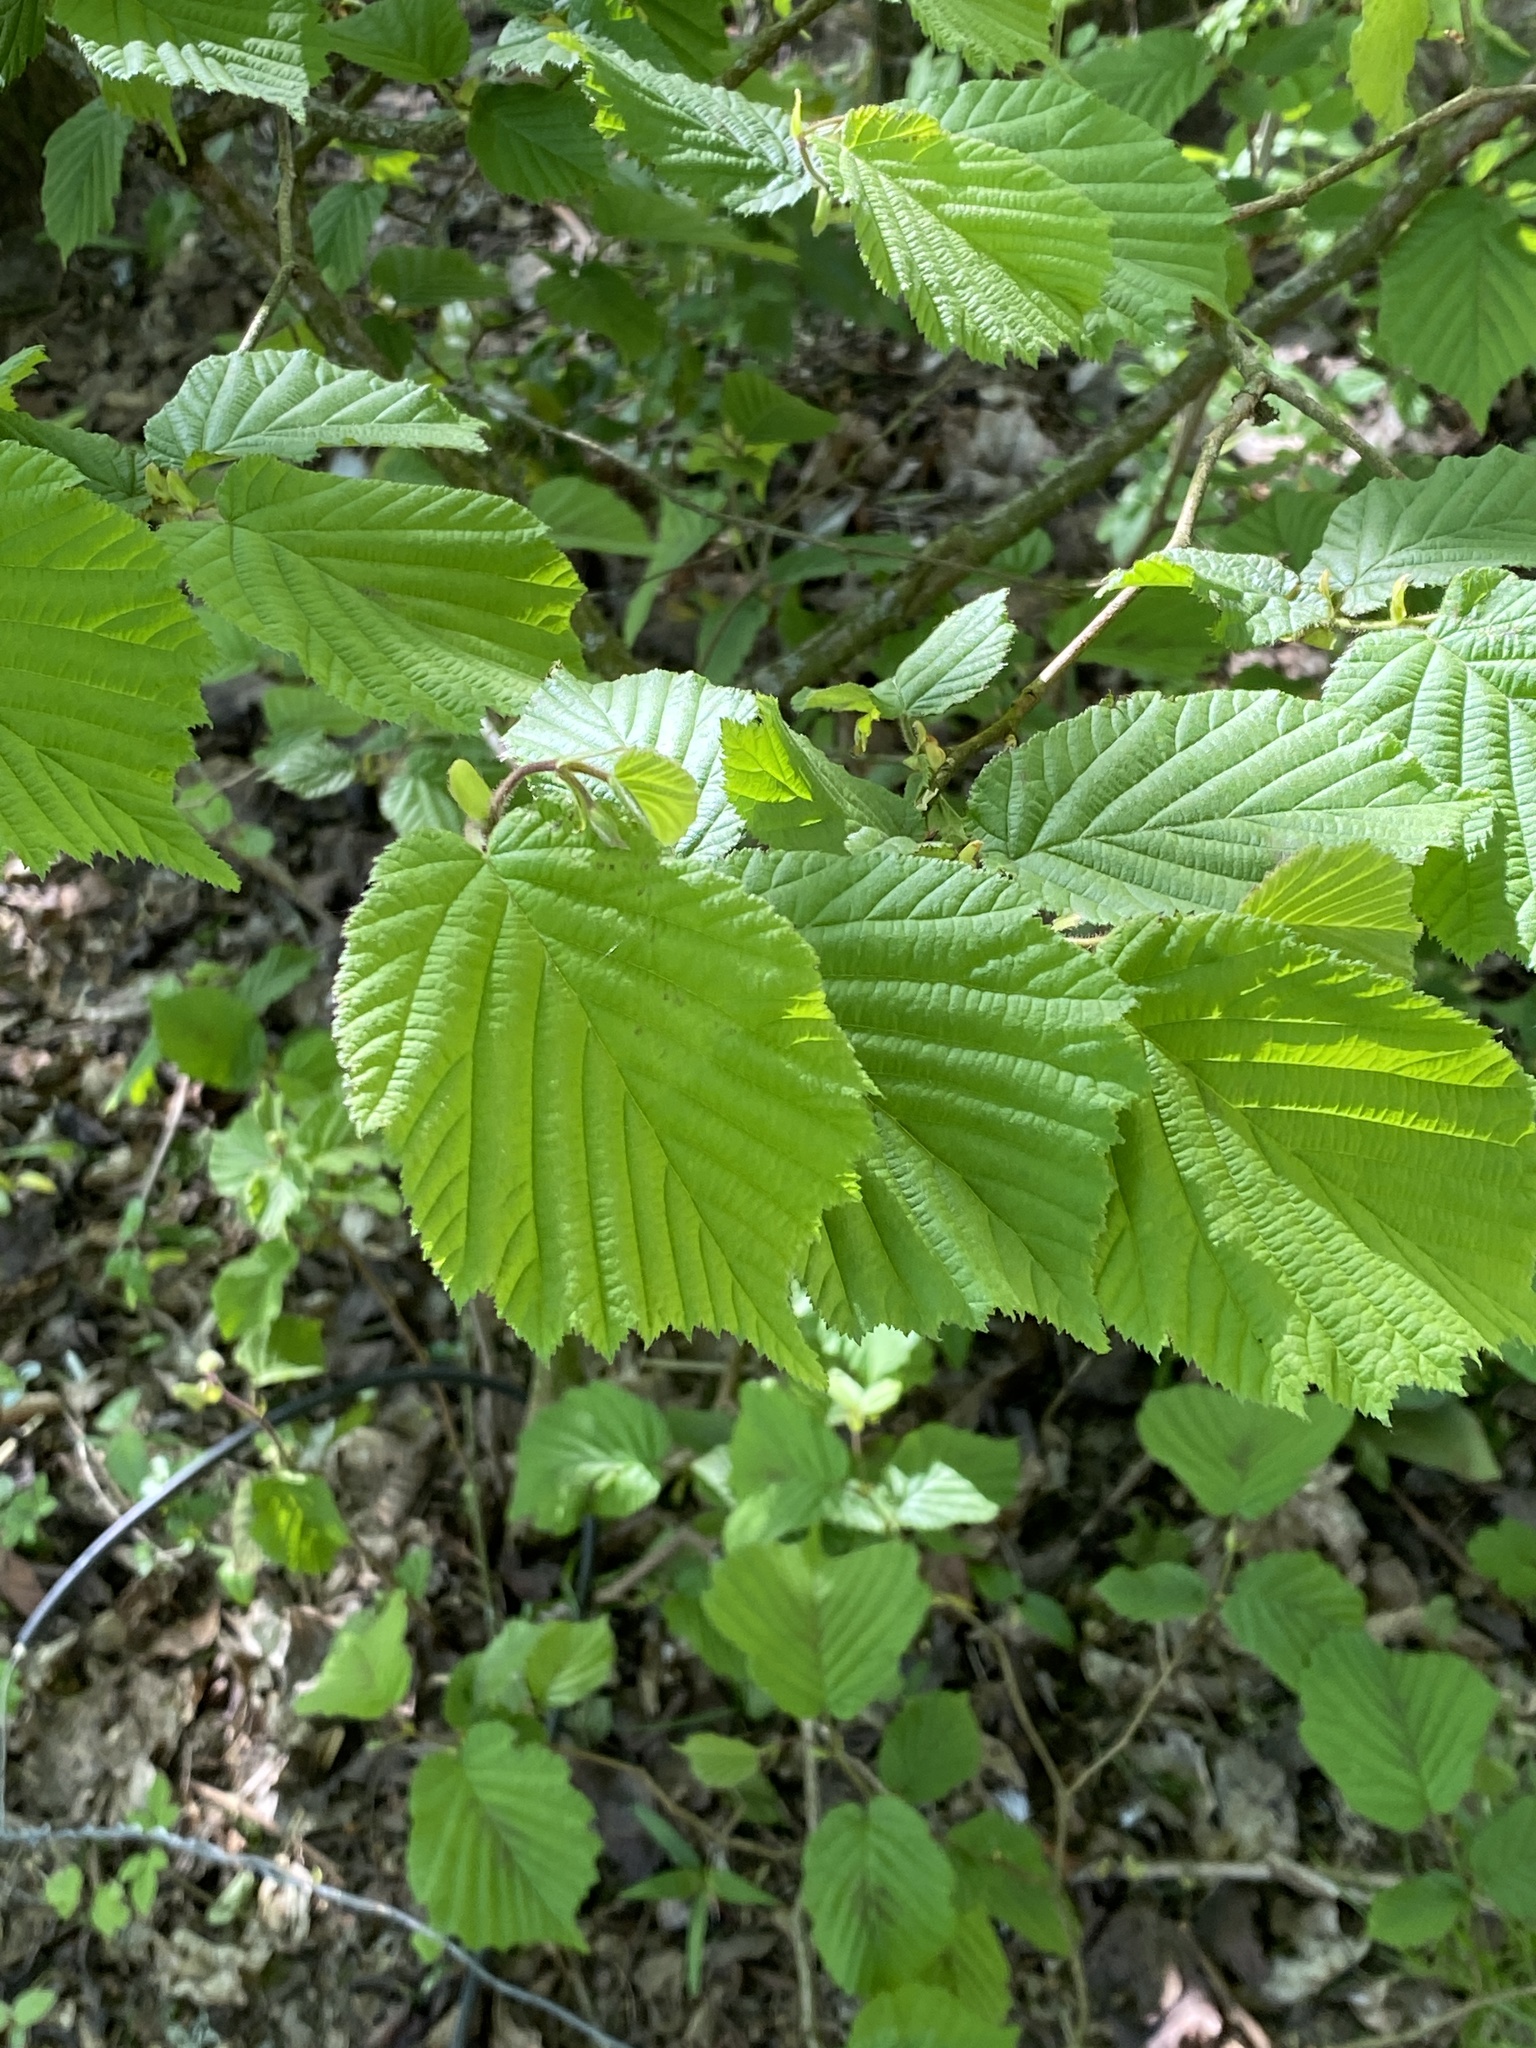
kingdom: Plantae
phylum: Tracheophyta
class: Magnoliopsida
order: Fagales
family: Betulaceae
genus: Corylus
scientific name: Corylus avellana
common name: European hazel
